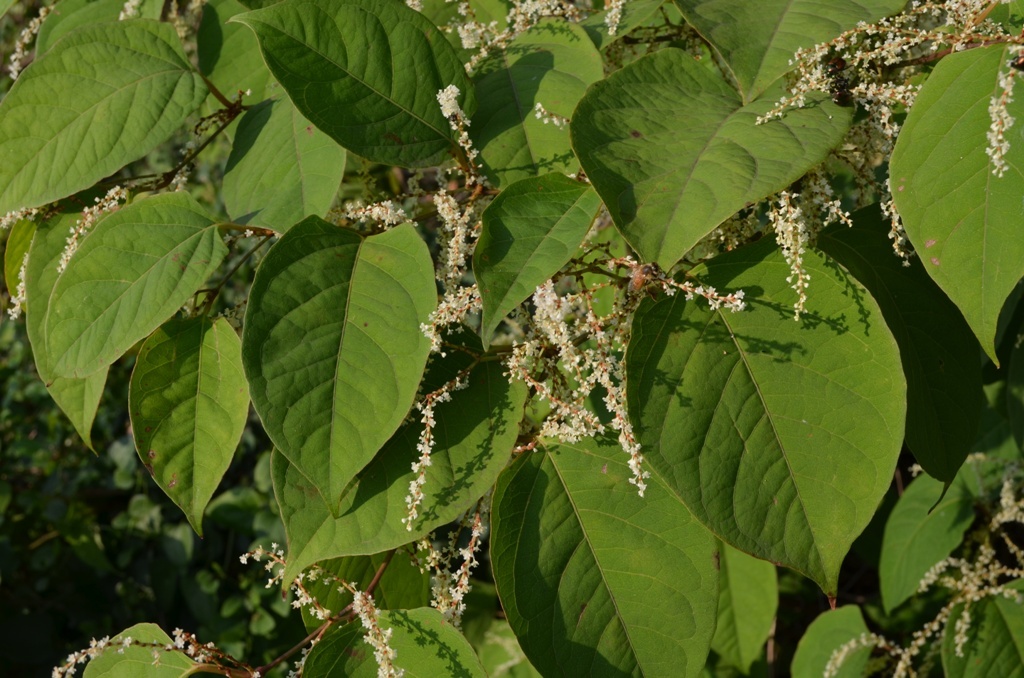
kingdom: Plantae
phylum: Tracheophyta
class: Magnoliopsida
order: Caryophyllales
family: Polygonaceae
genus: Reynoutria
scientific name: Reynoutria japonica
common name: Japanese knotweed
